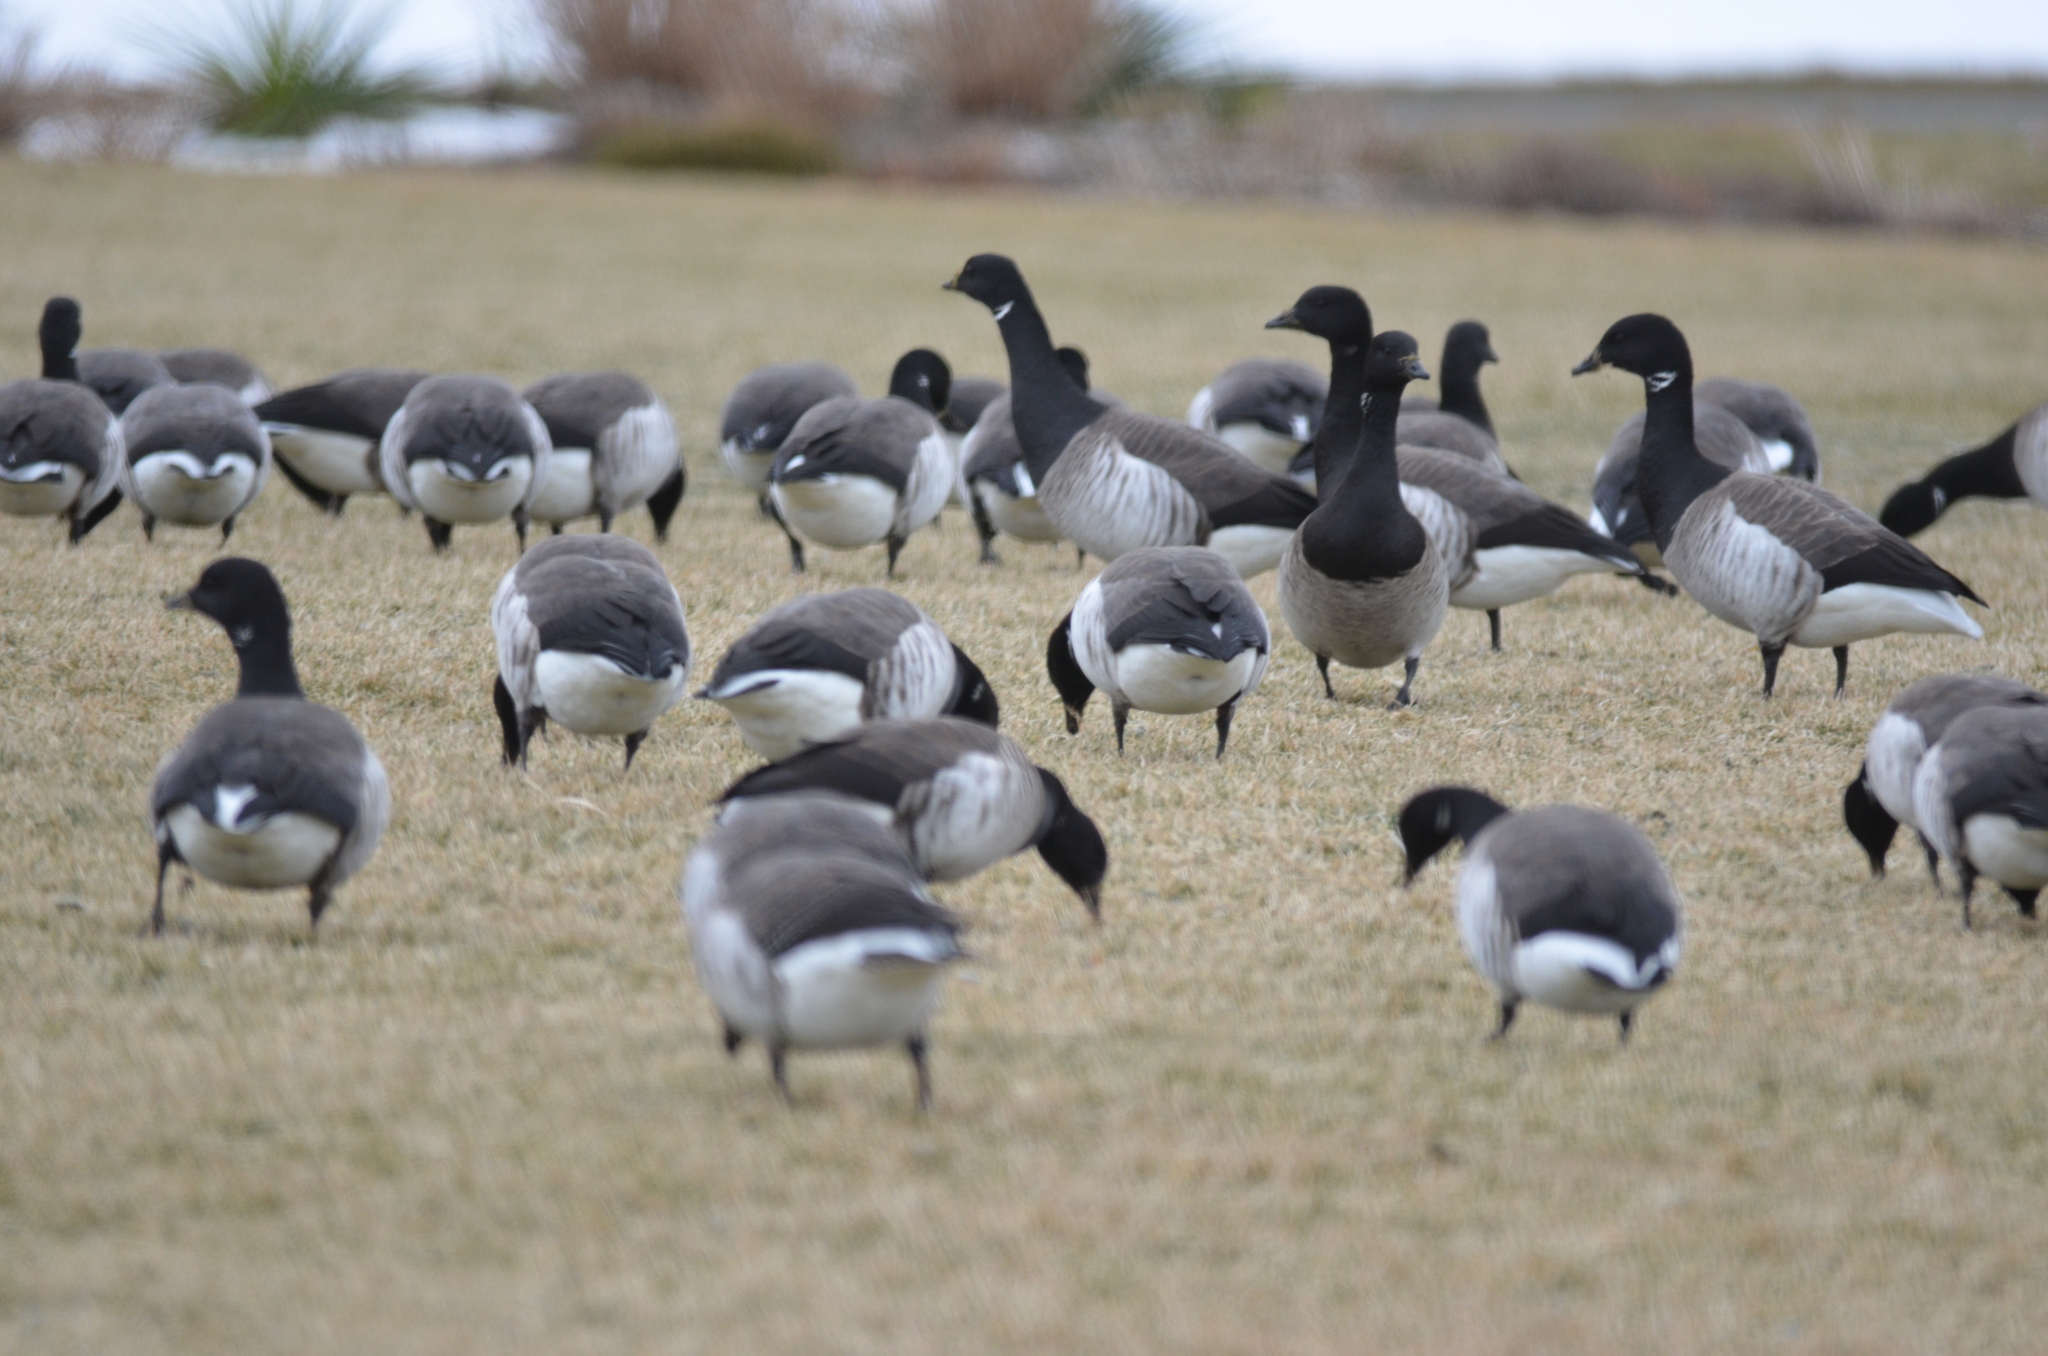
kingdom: Animalia
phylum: Chordata
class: Aves
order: Anseriformes
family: Anatidae
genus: Branta
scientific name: Branta bernicla
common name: Brant goose
